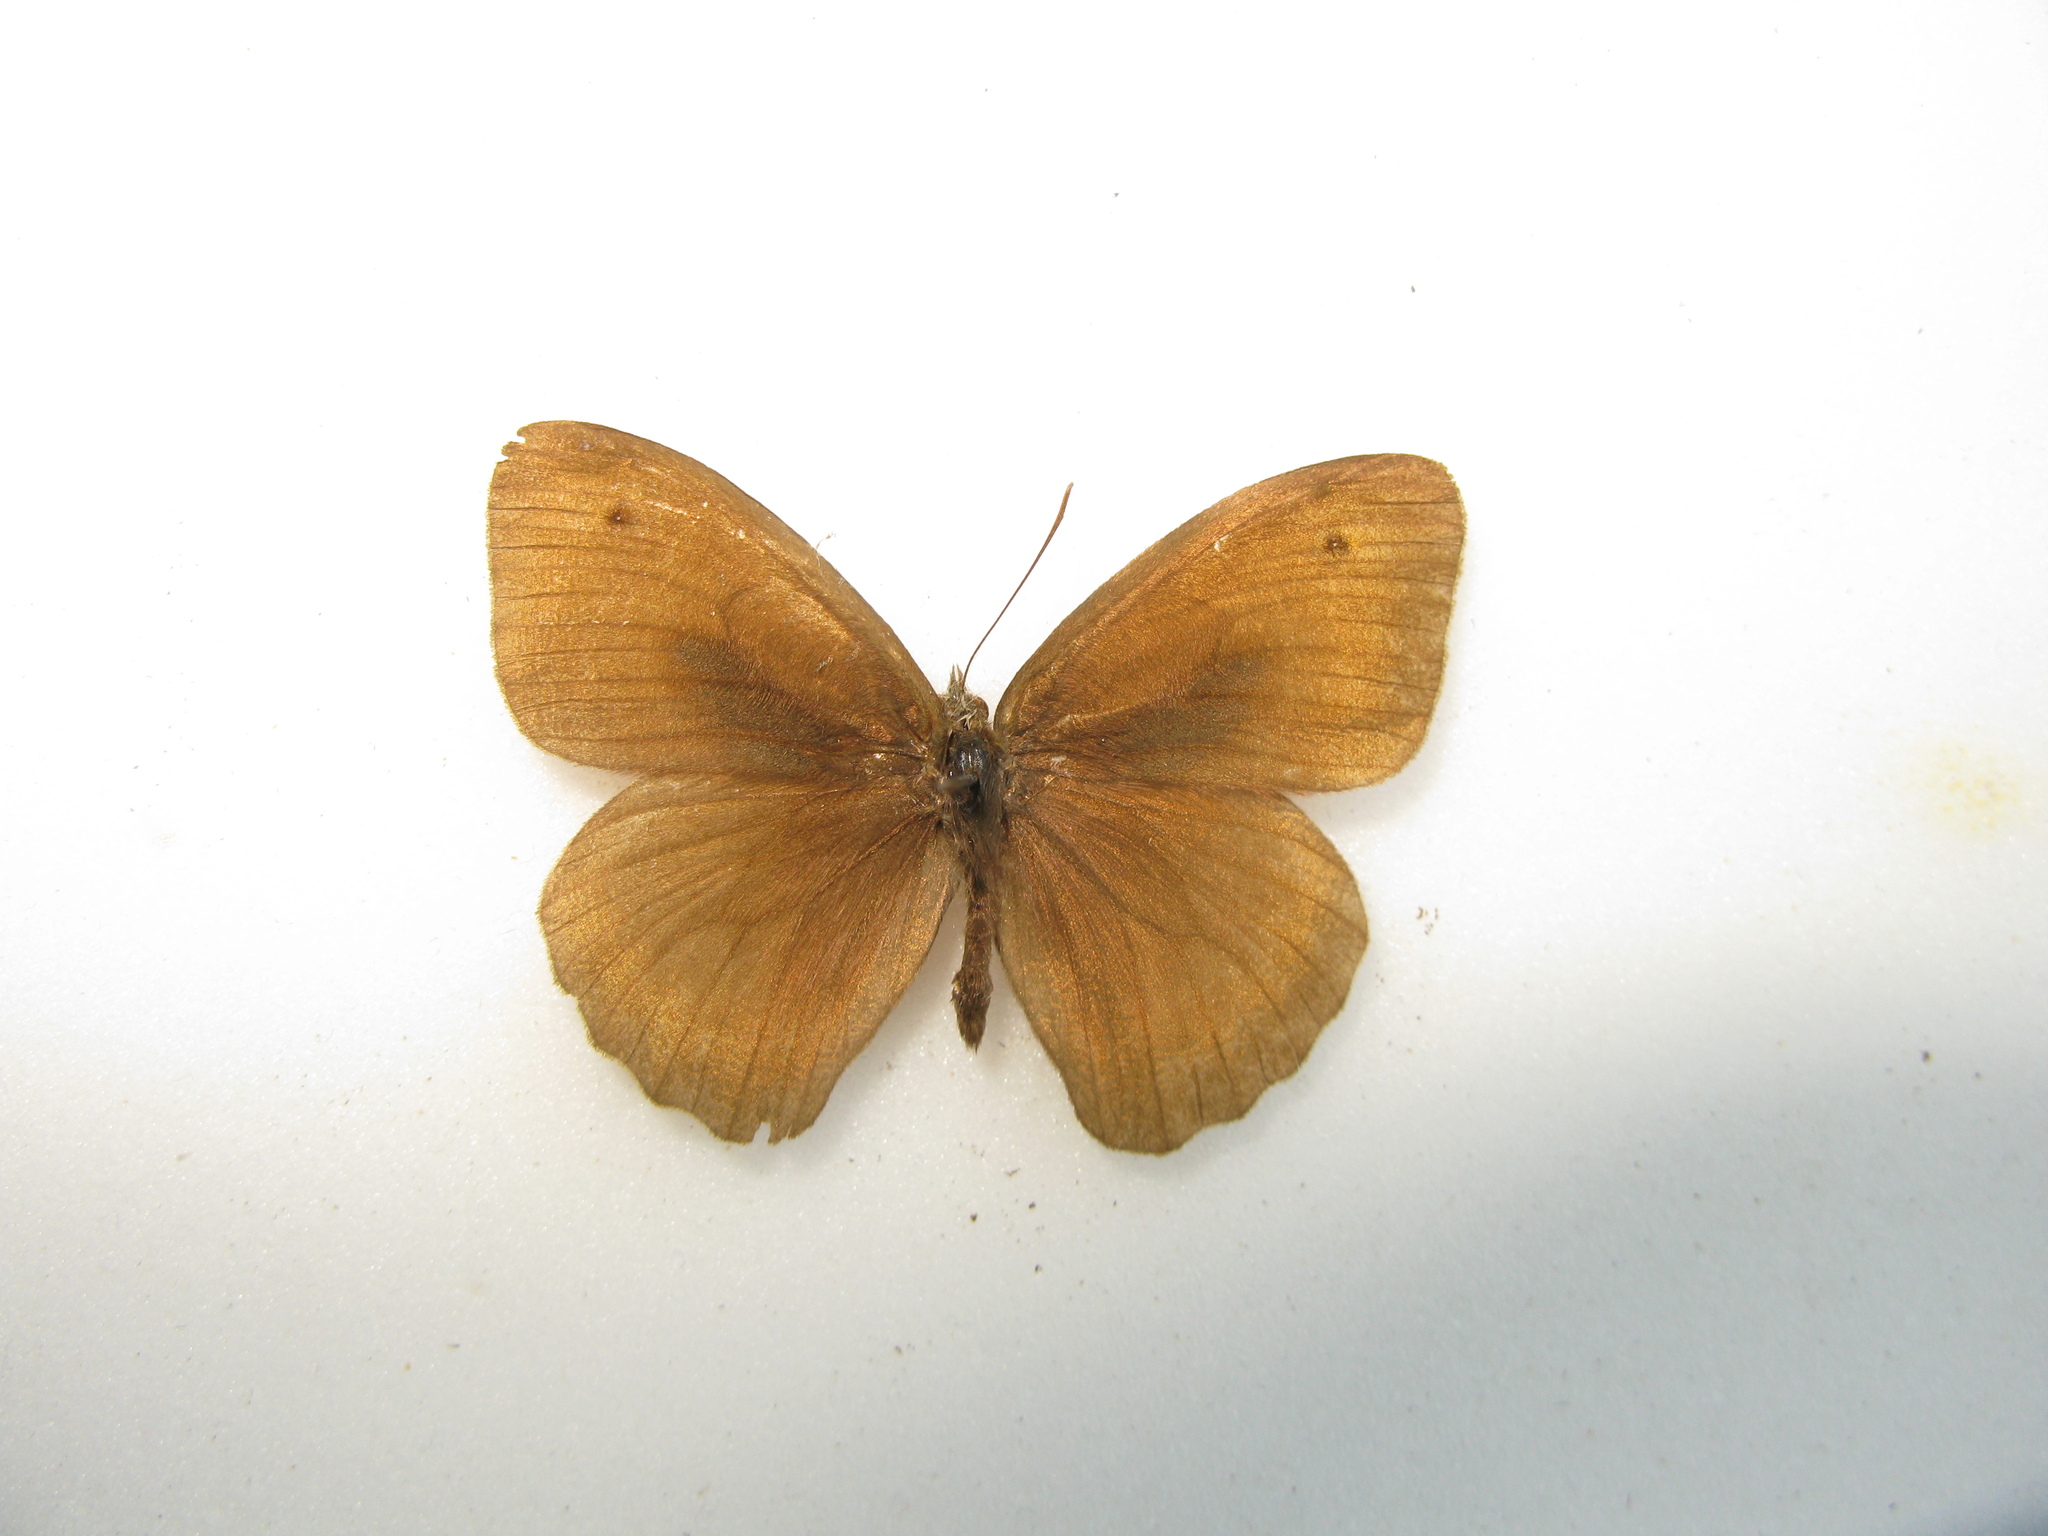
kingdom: Animalia
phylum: Arthropoda
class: Insecta
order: Lepidoptera
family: Nymphalidae
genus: Maniola
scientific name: Maniola jurtina
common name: Meadow brown
